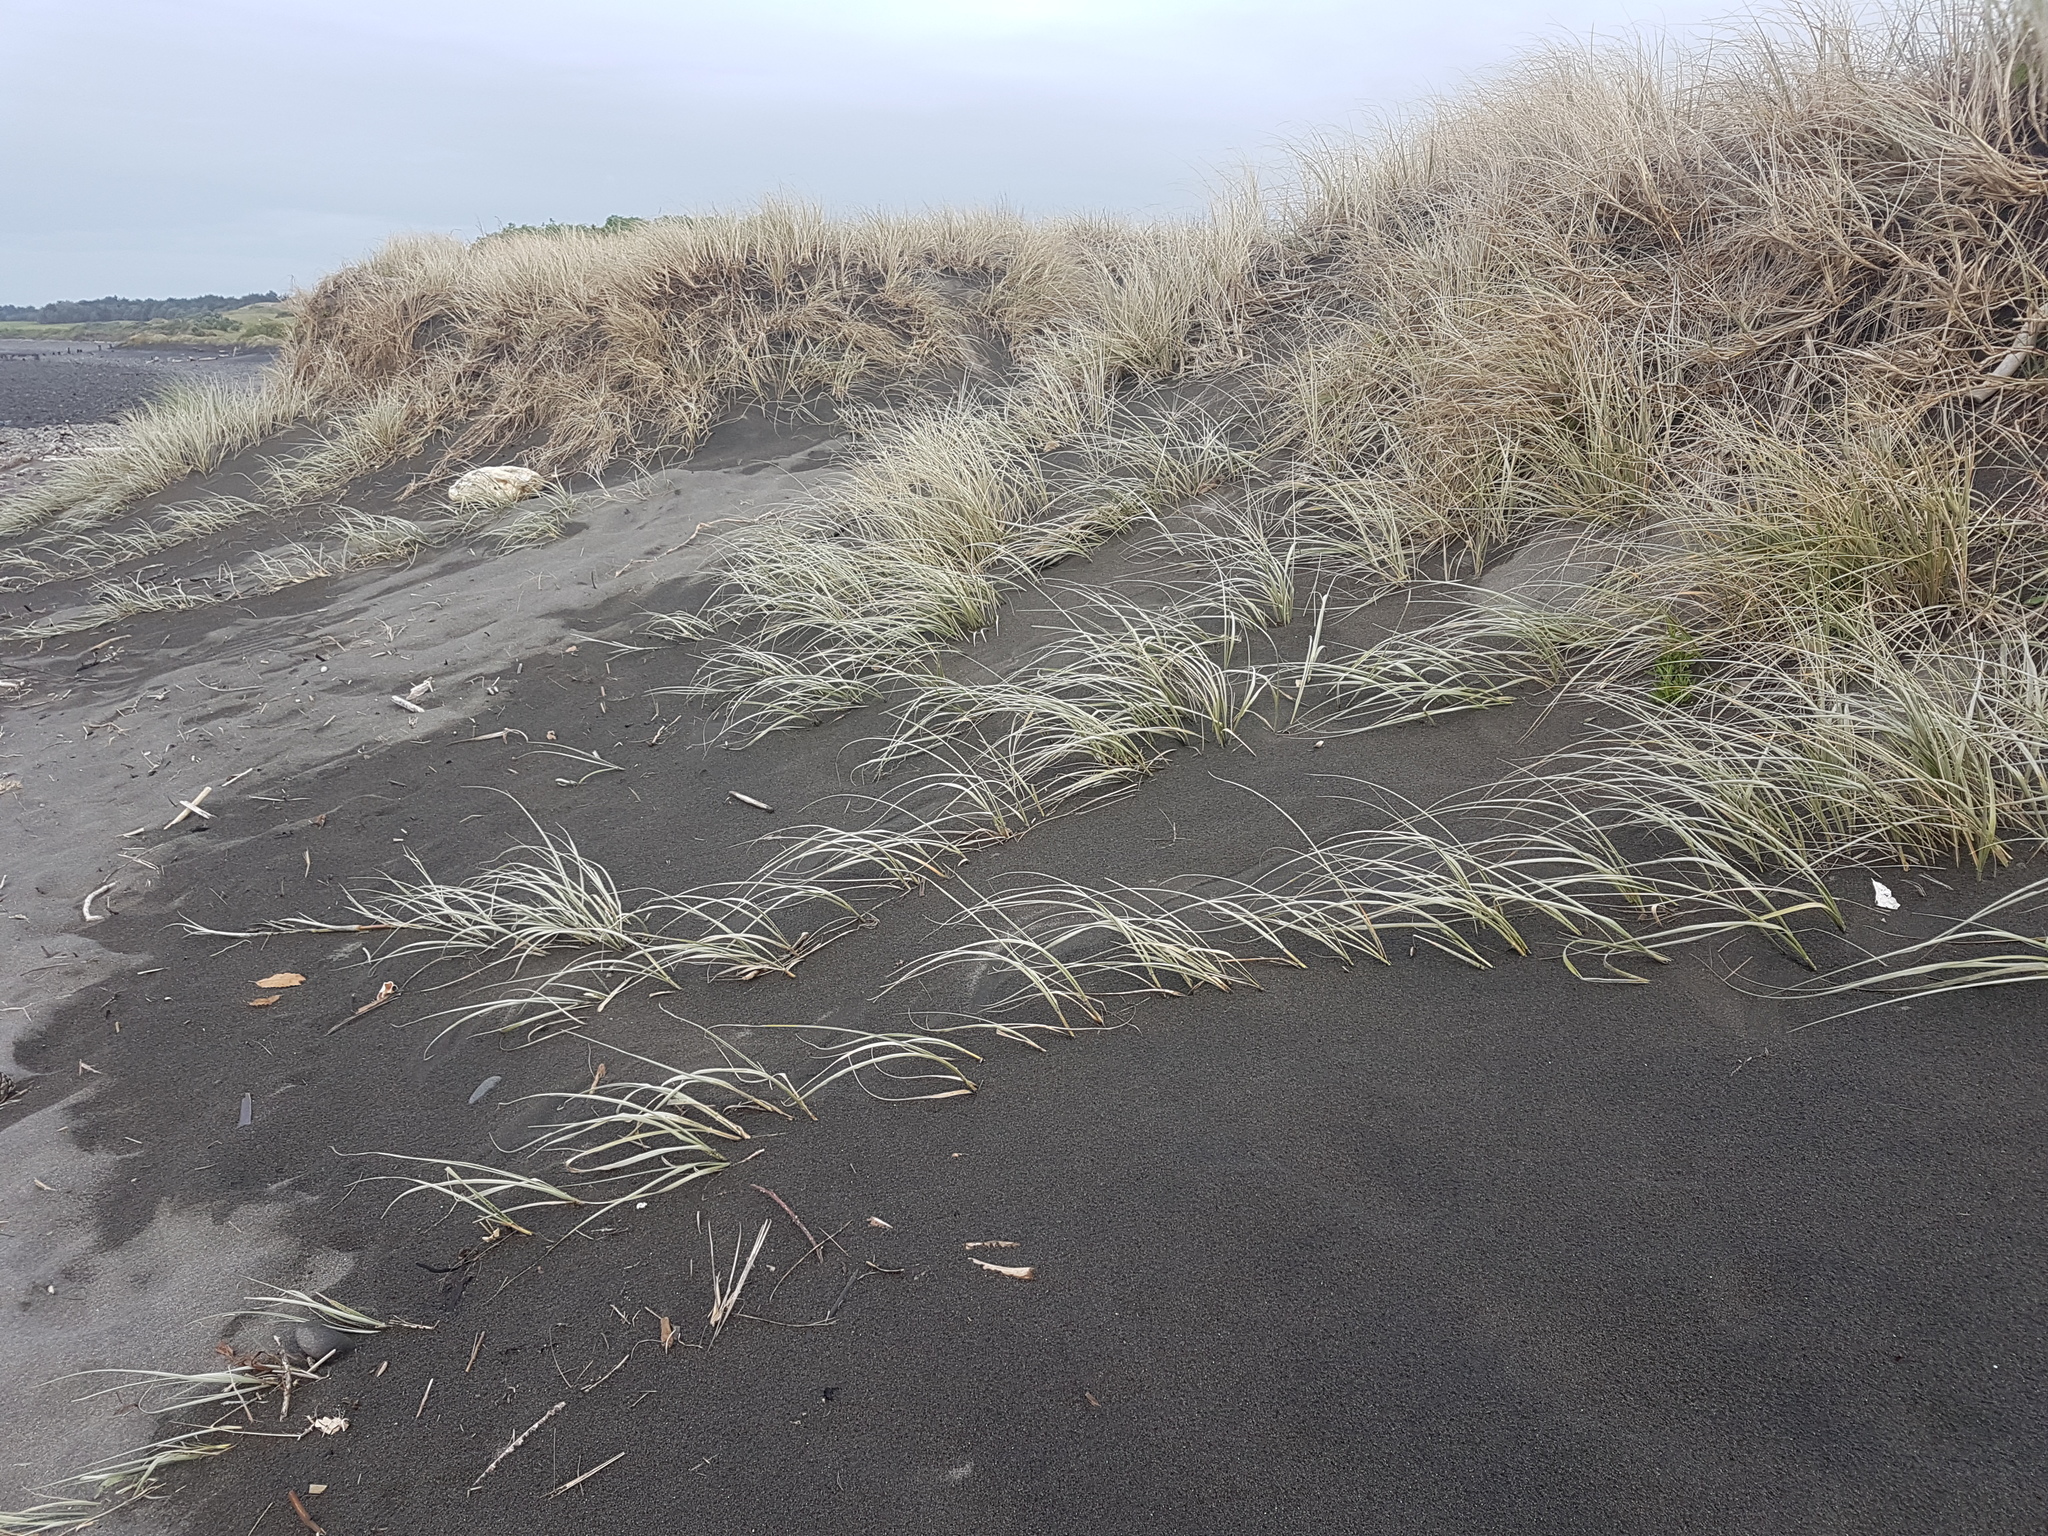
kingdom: Plantae
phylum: Tracheophyta
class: Liliopsida
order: Poales
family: Poaceae
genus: Spinifex
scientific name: Spinifex sericeus
